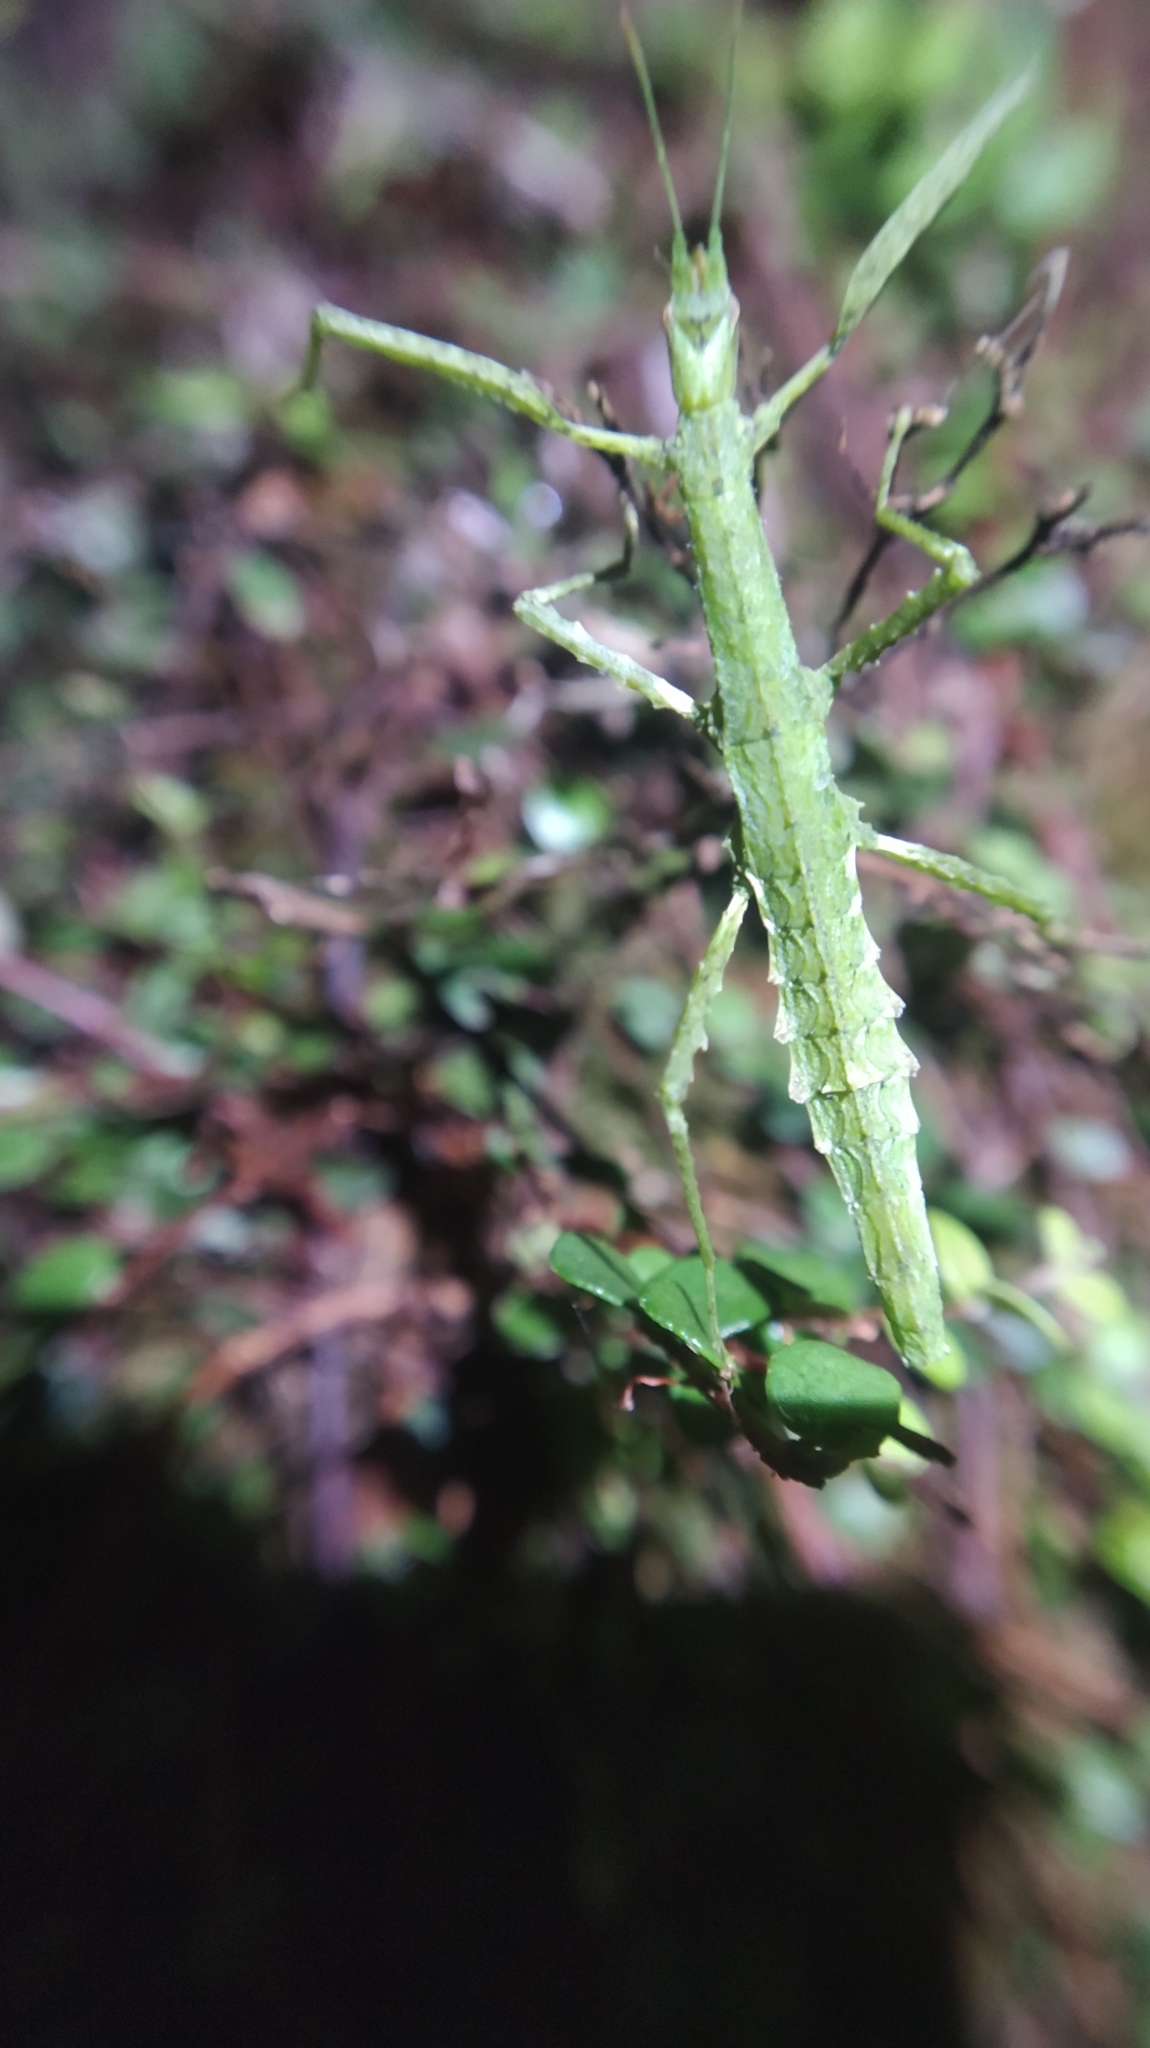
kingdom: Animalia
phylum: Arthropoda
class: Insecta
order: Phasmida
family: Phasmatidae
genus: Spinotectarchus
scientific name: Spinotectarchus acornutus
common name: The spiny ridge-backed stick insect
